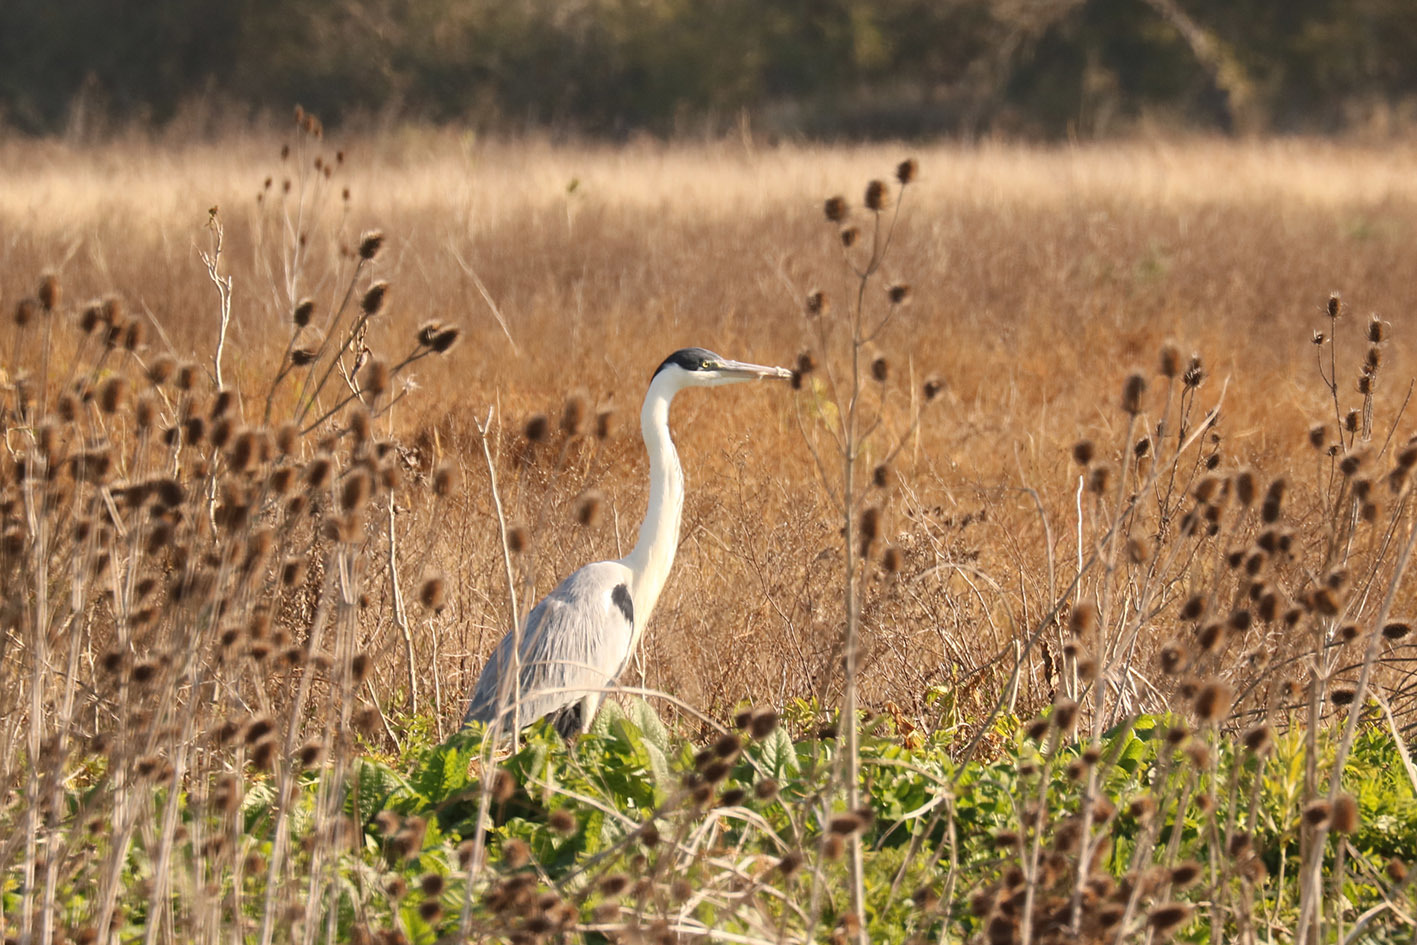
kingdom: Animalia
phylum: Chordata
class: Aves
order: Pelecaniformes
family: Ardeidae
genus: Ardea
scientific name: Ardea cocoi
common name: Cocoi heron
